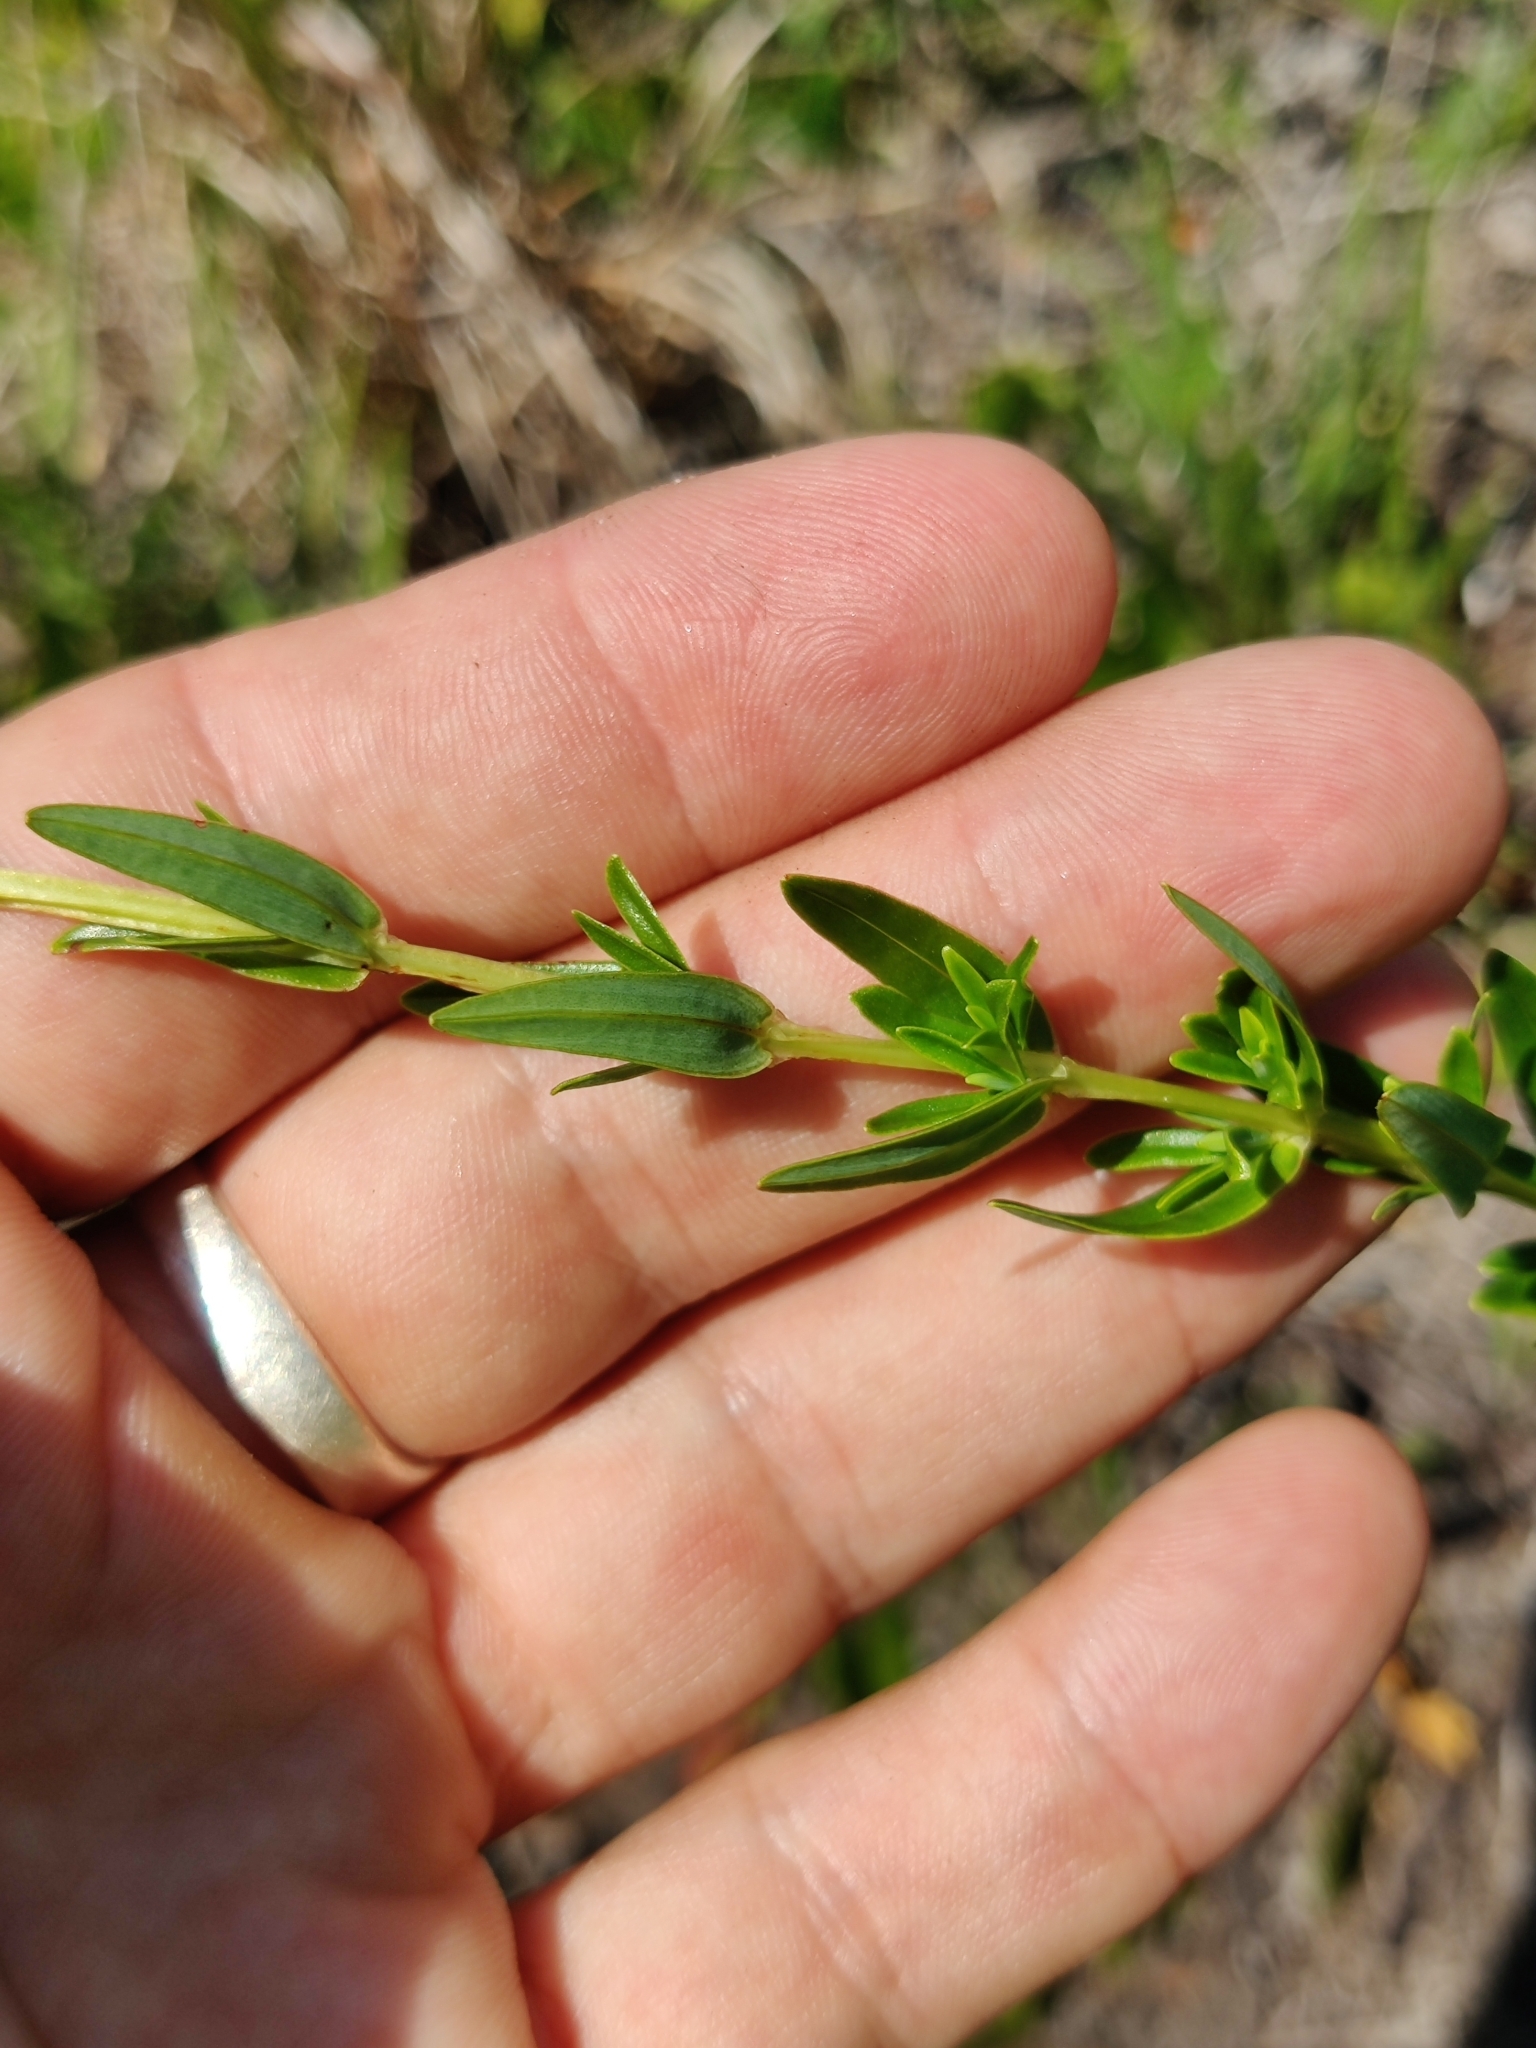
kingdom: Plantae
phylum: Tracheophyta
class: Magnoliopsida
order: Malpighiales
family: Hypericaceae
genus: Hypericum
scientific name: Hypericum cistifolium
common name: Round-pod st. john's-wort
